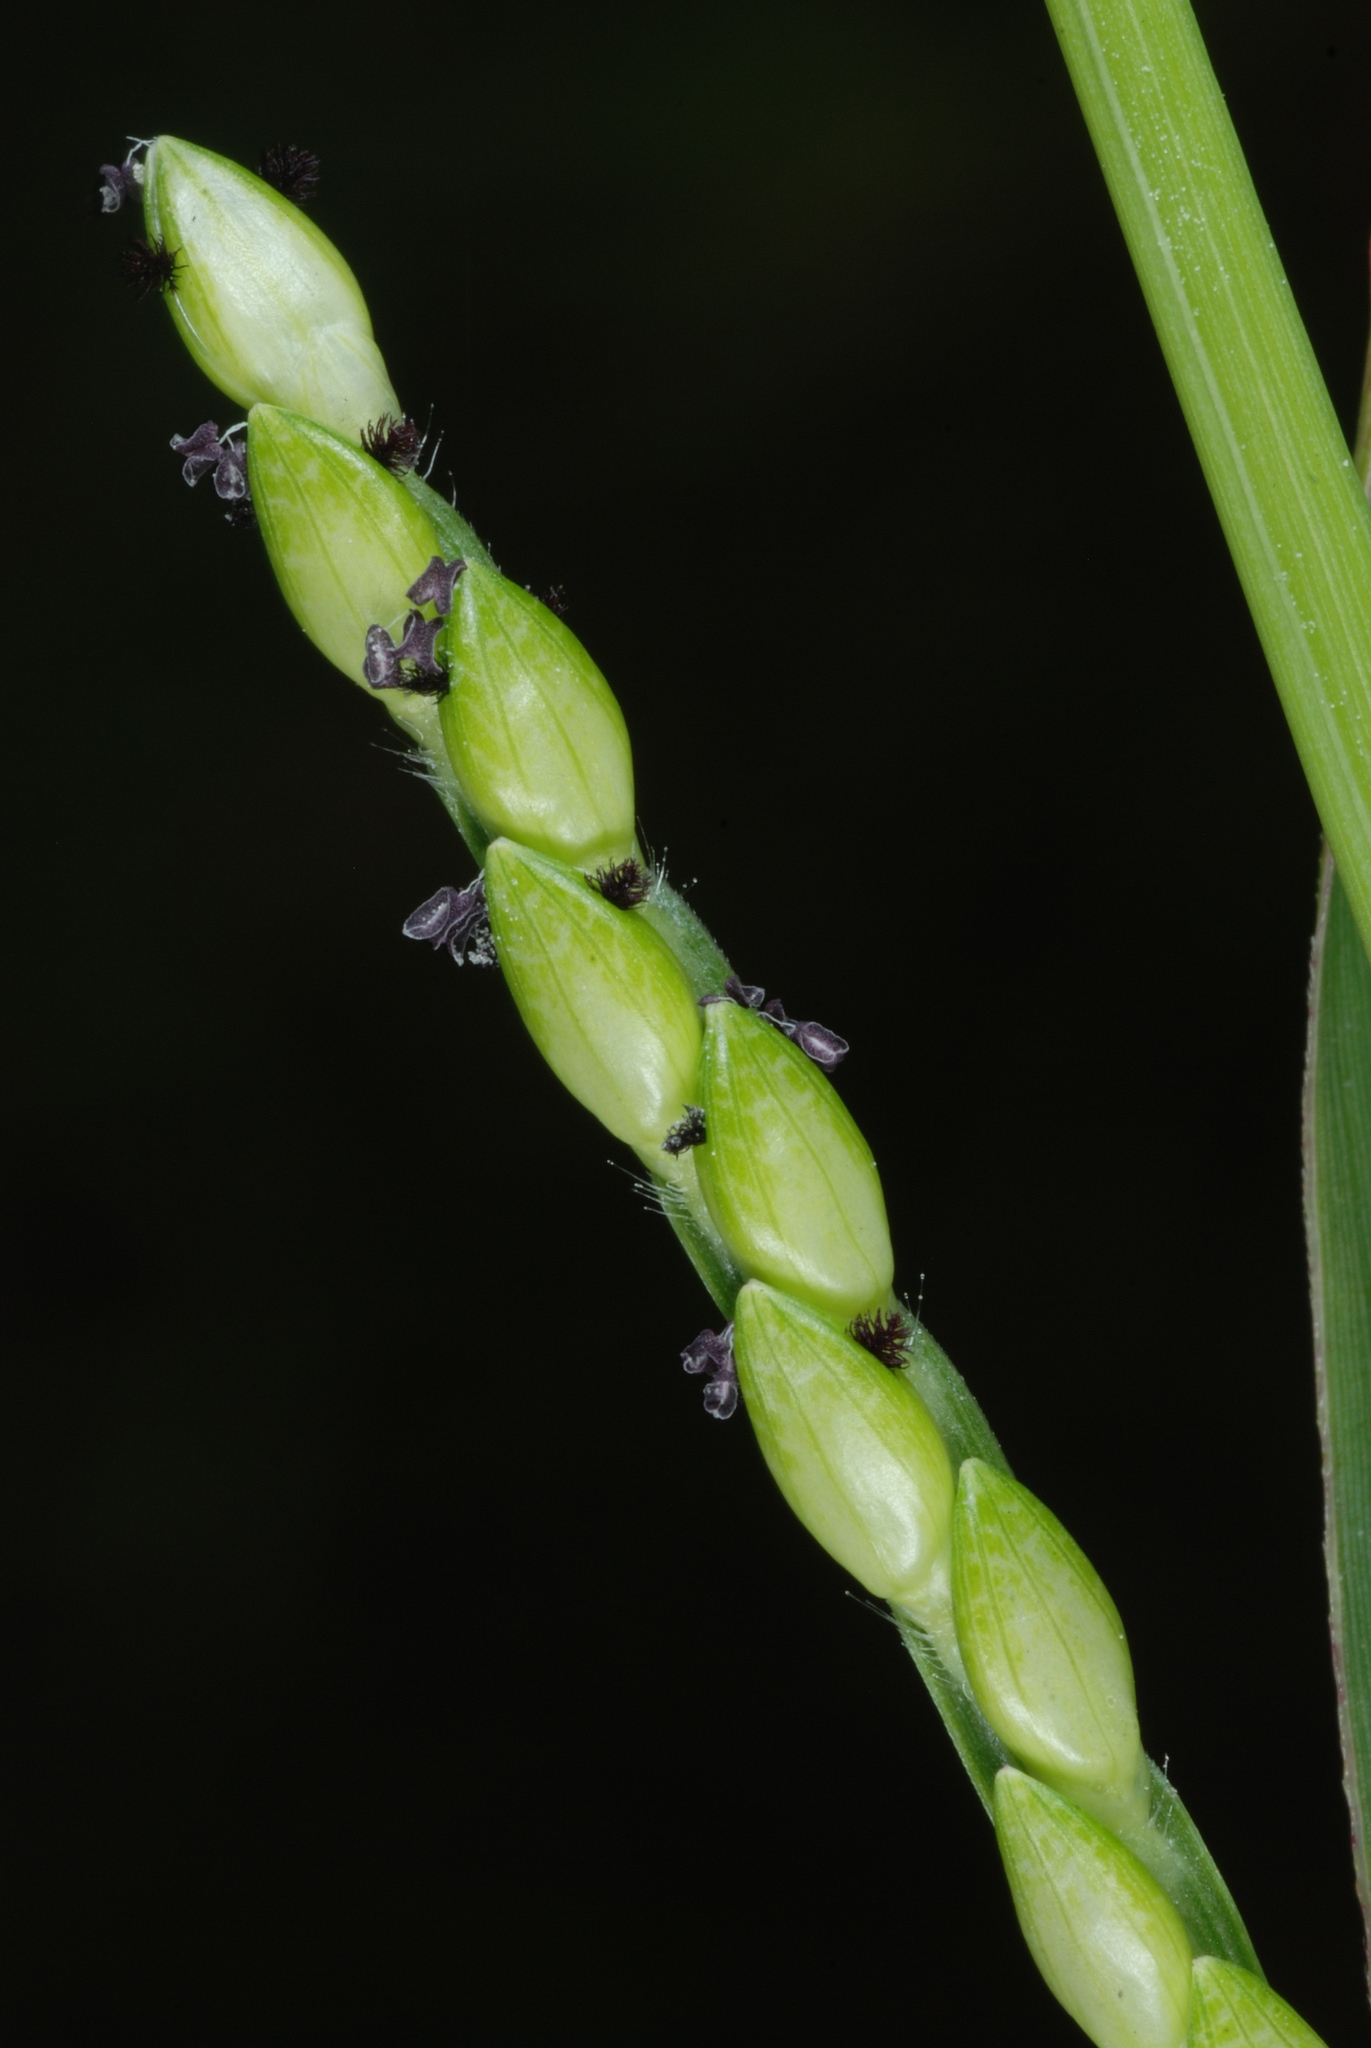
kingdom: Plantae
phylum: Tracheophyta
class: Liliopsida
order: Poales
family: Poaceae
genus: Urochloa
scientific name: Urochloa platyphylla
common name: White para grass
